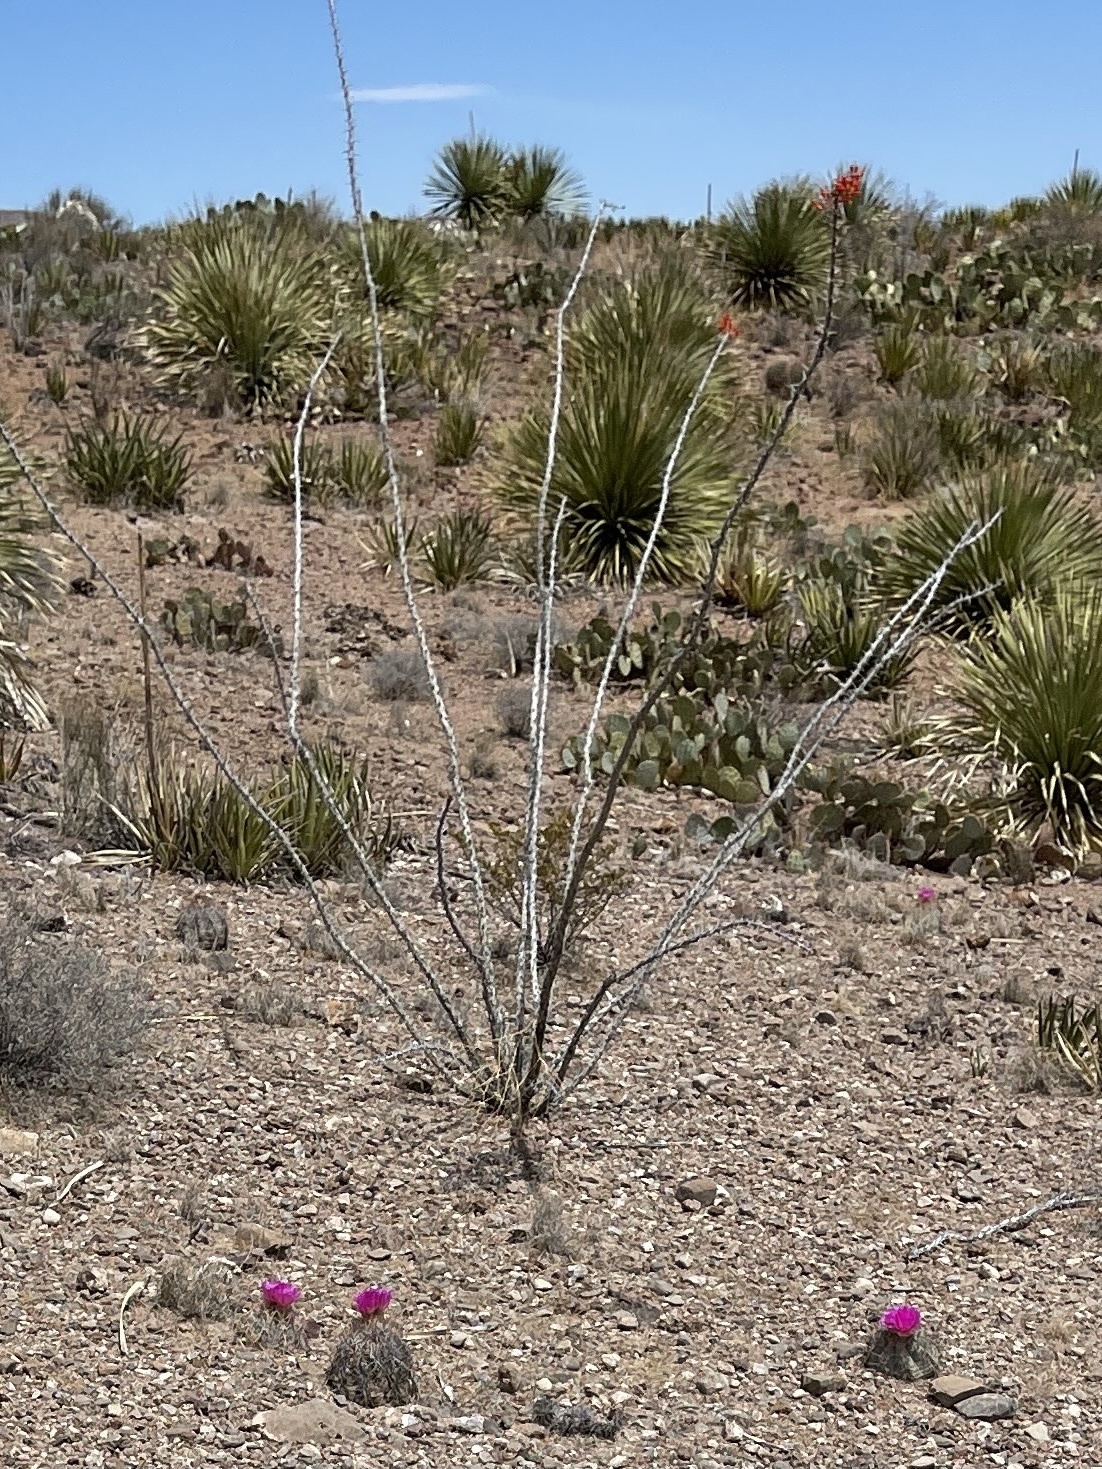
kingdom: Plantae
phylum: Tracheophyta
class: Magnoliopsida
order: Ericales
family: Fouquieriaceae
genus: Fouquieria
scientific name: Fouquieria splendens
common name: Vine-cactus
